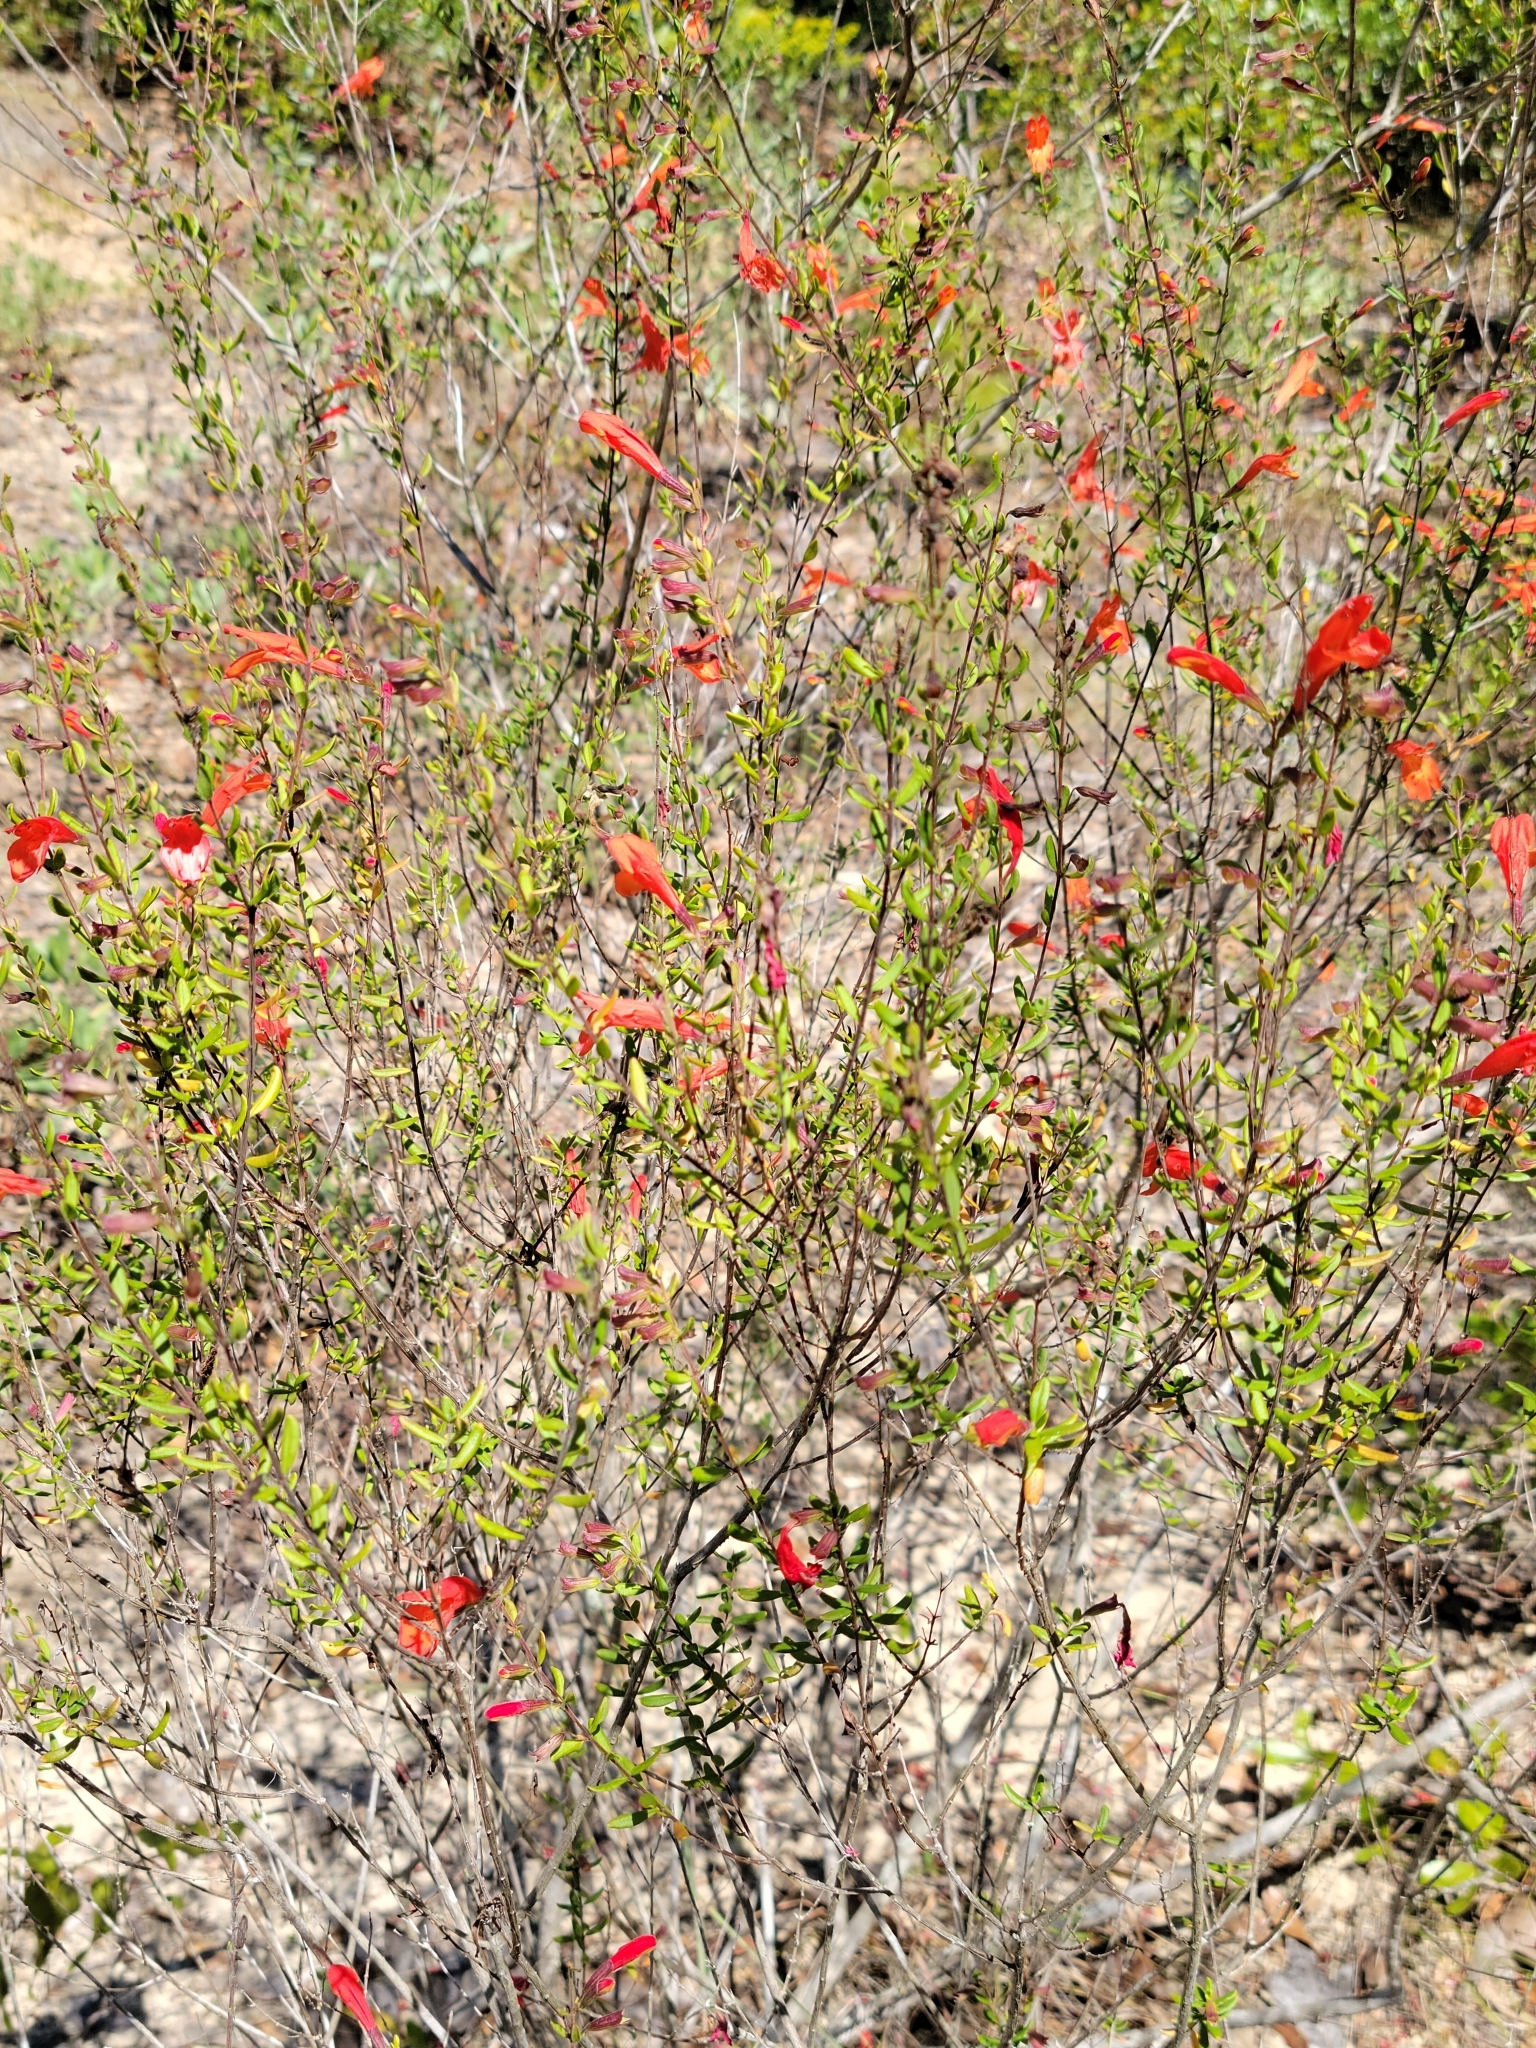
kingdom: Plantae
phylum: Tracheophyta
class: Magnoliopsida
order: Lamiales
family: Lamiaceae
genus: Clinopodium
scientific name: Clinopodium coccineum
